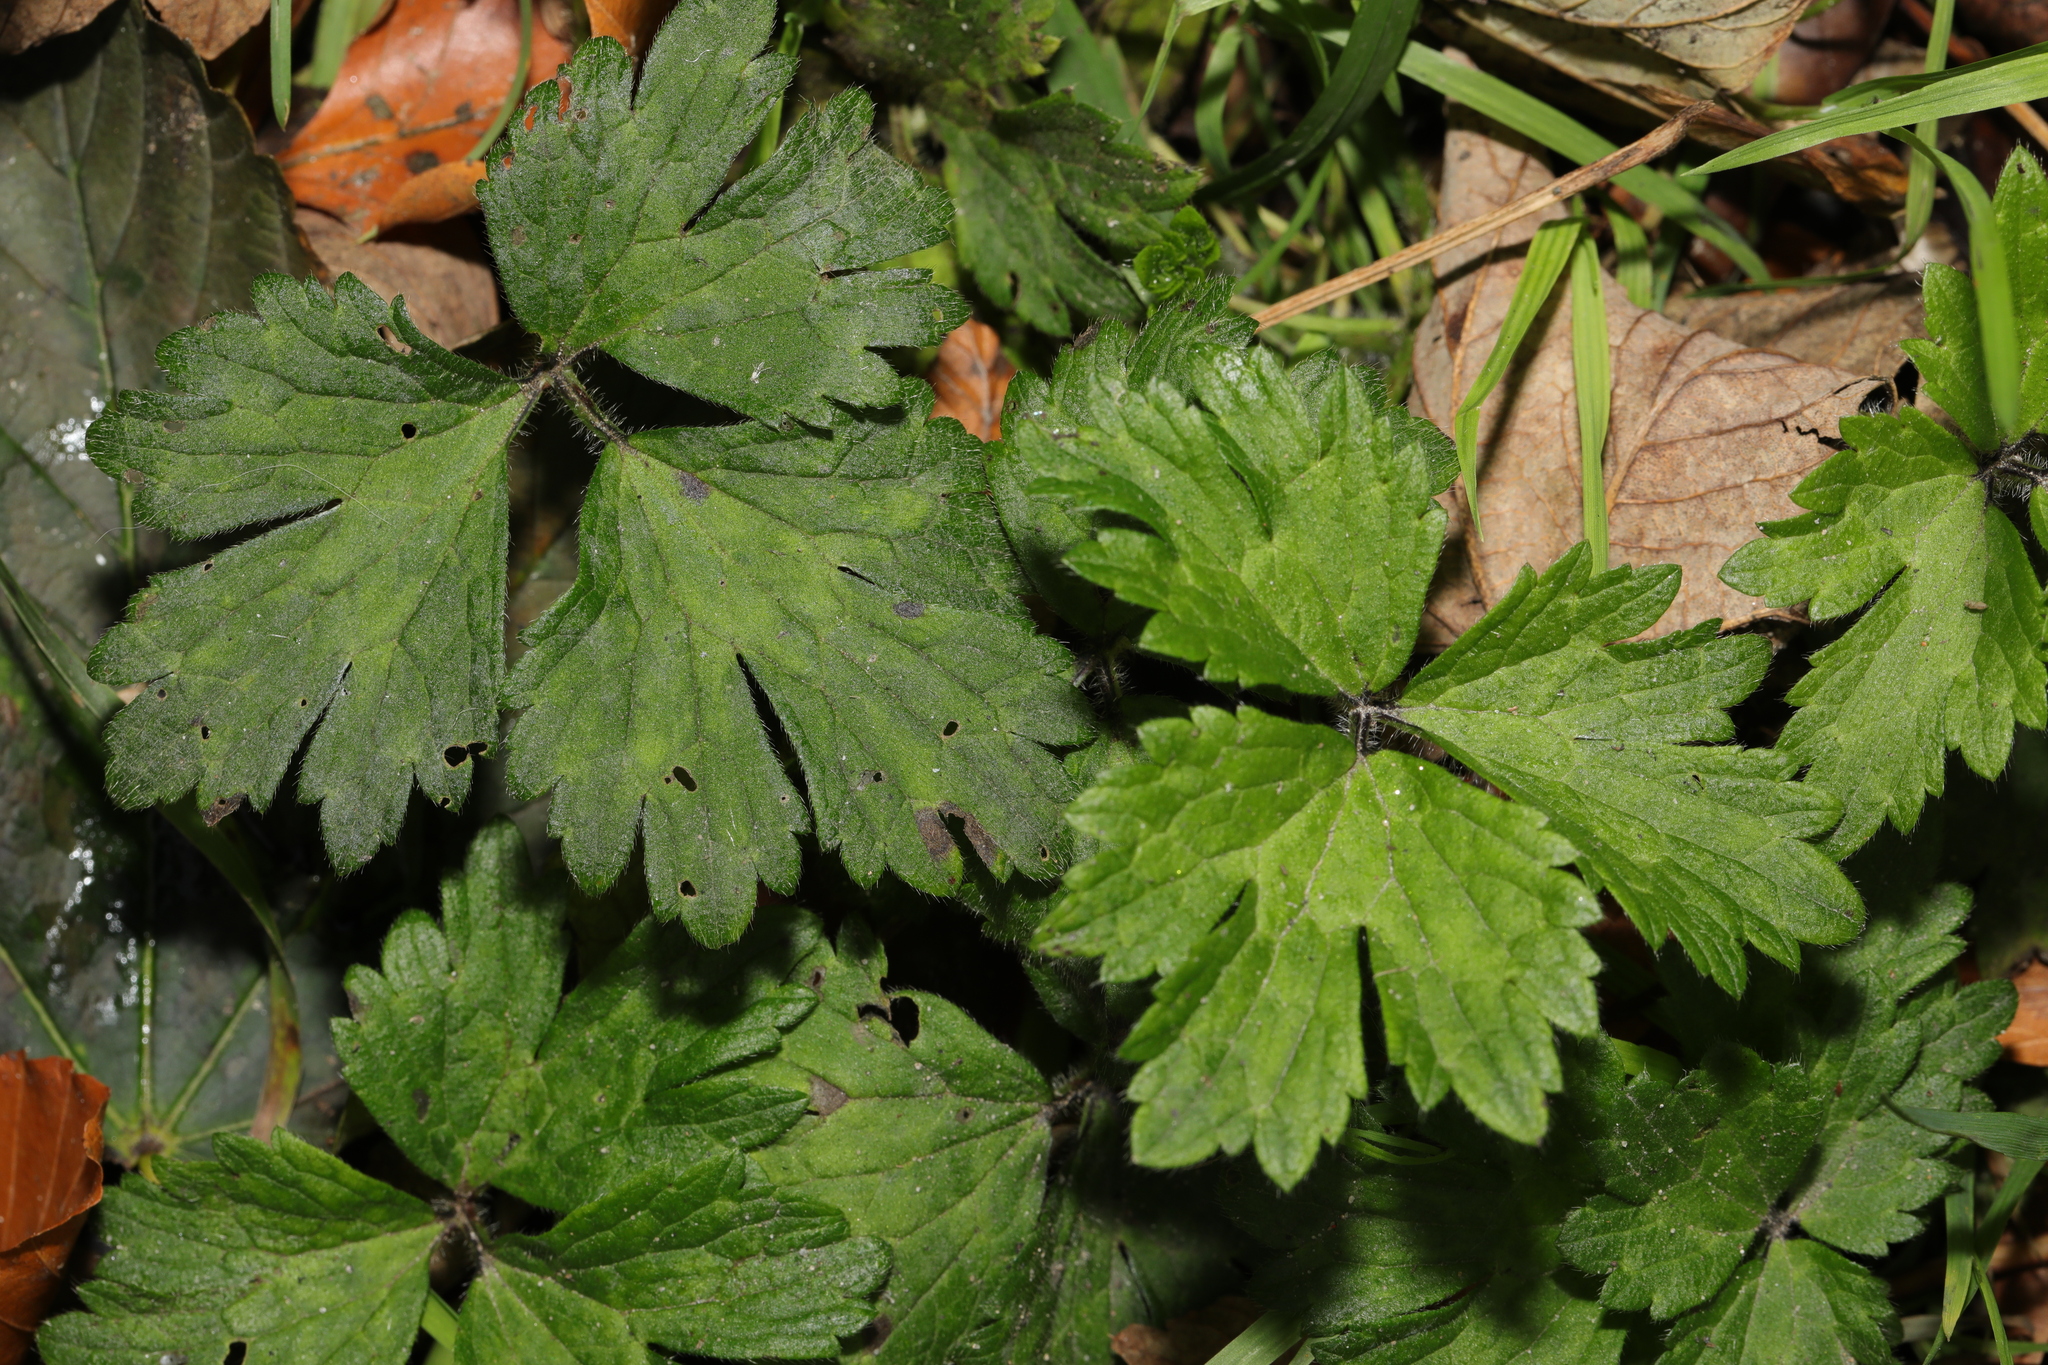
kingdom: Plantae
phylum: Tracheophyta
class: Magnoliopsida
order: Ranunculales
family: Ranunculaceae
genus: Ranunculus
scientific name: Ranunculus repens
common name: Creeping buttercup
